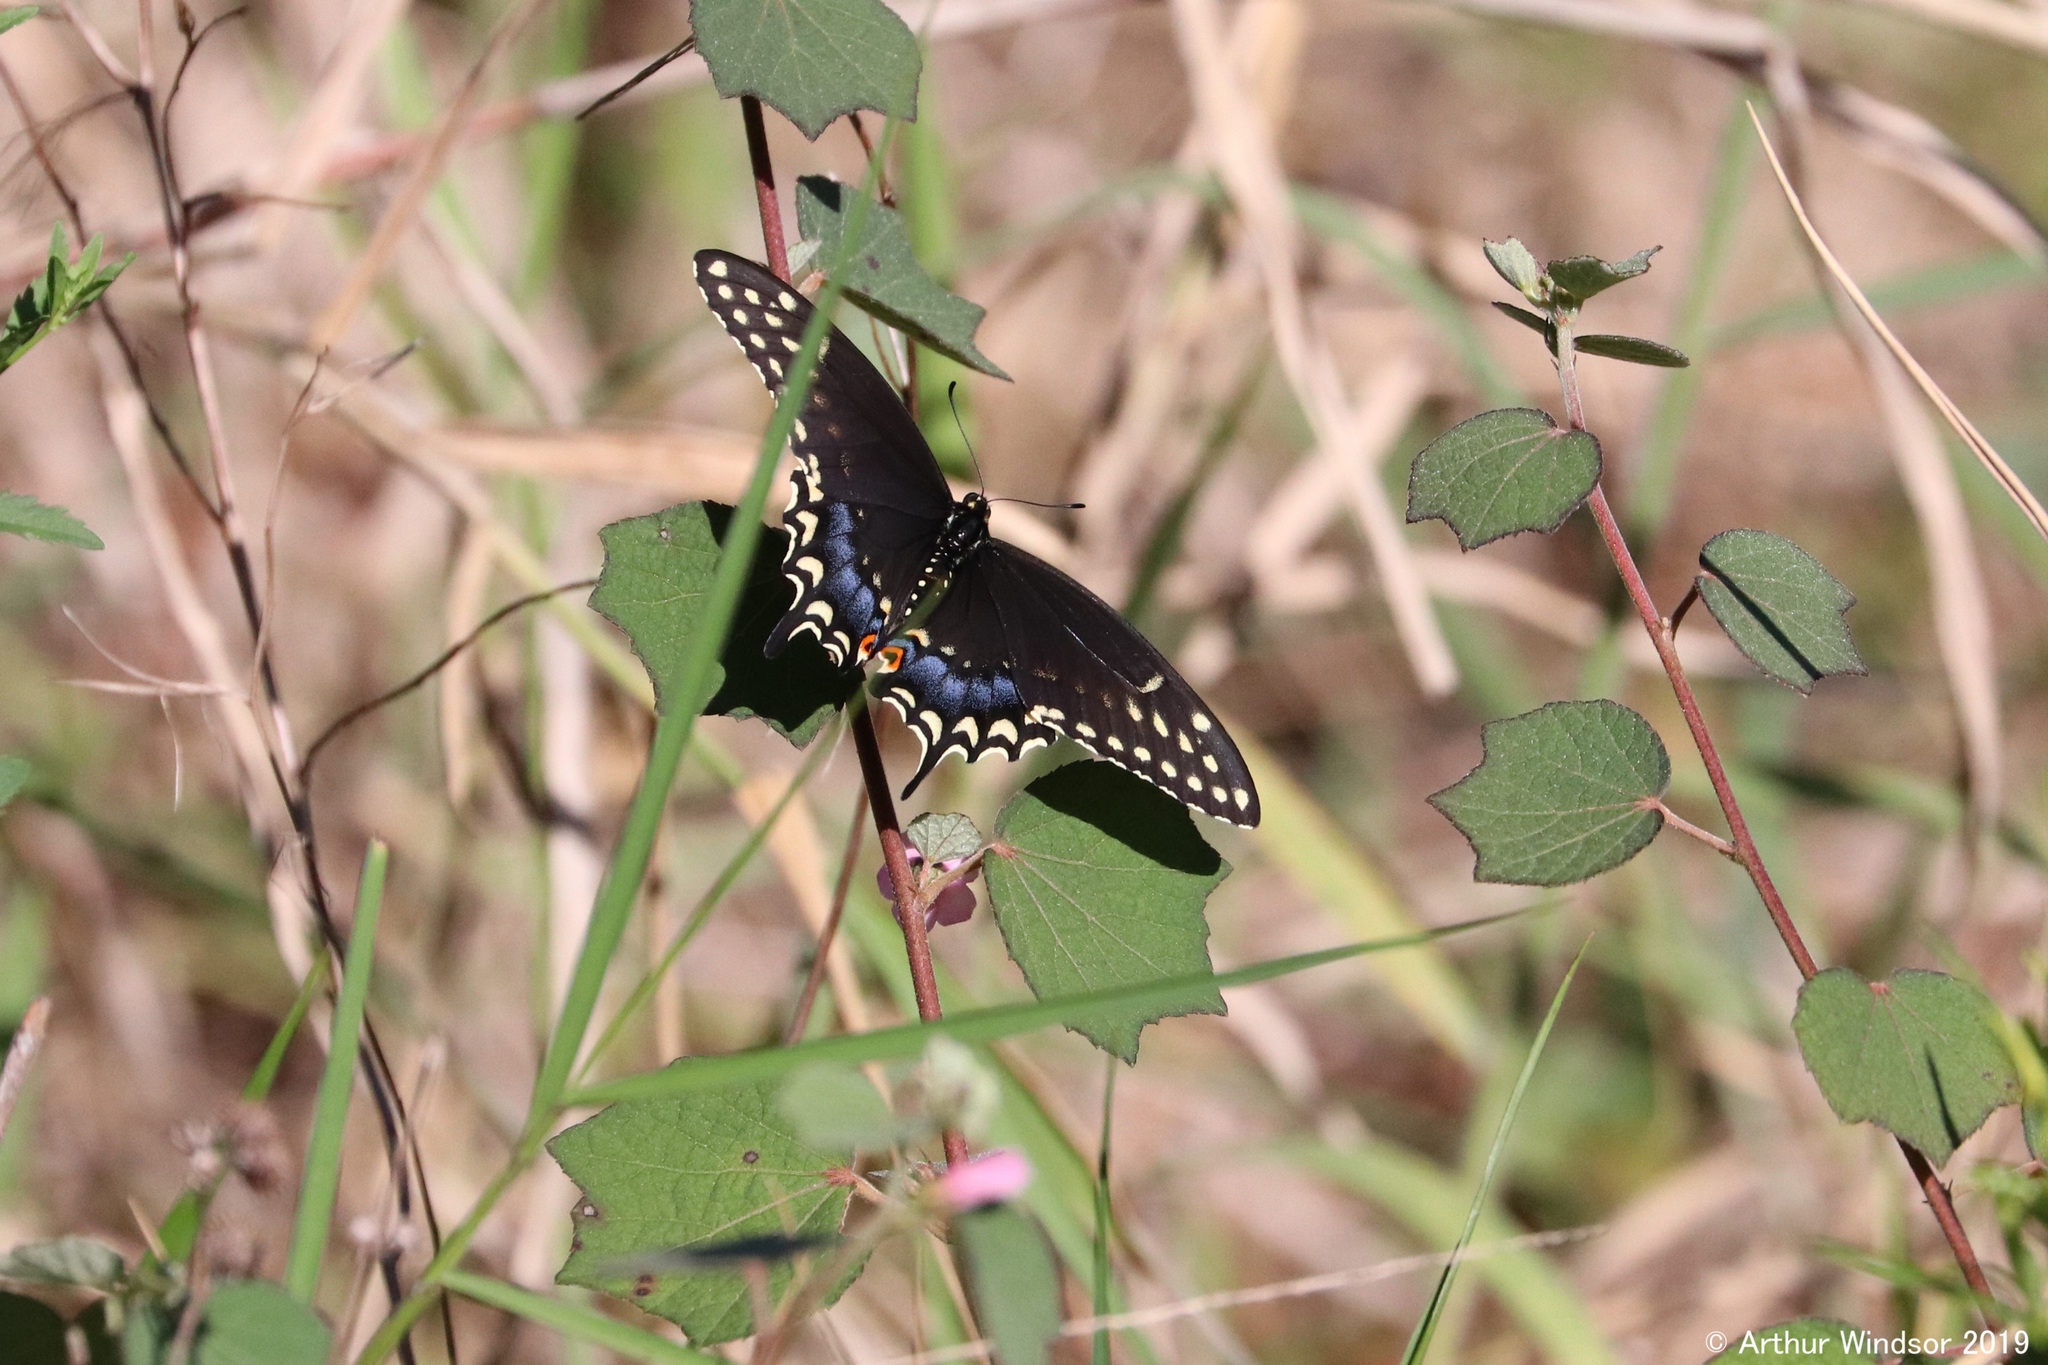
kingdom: Animalia
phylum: Arthropoda
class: Insecta
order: Lepidoptera
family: Papilionidae
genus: Papilio
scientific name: Papilio polyxenes
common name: Black swallowtail
